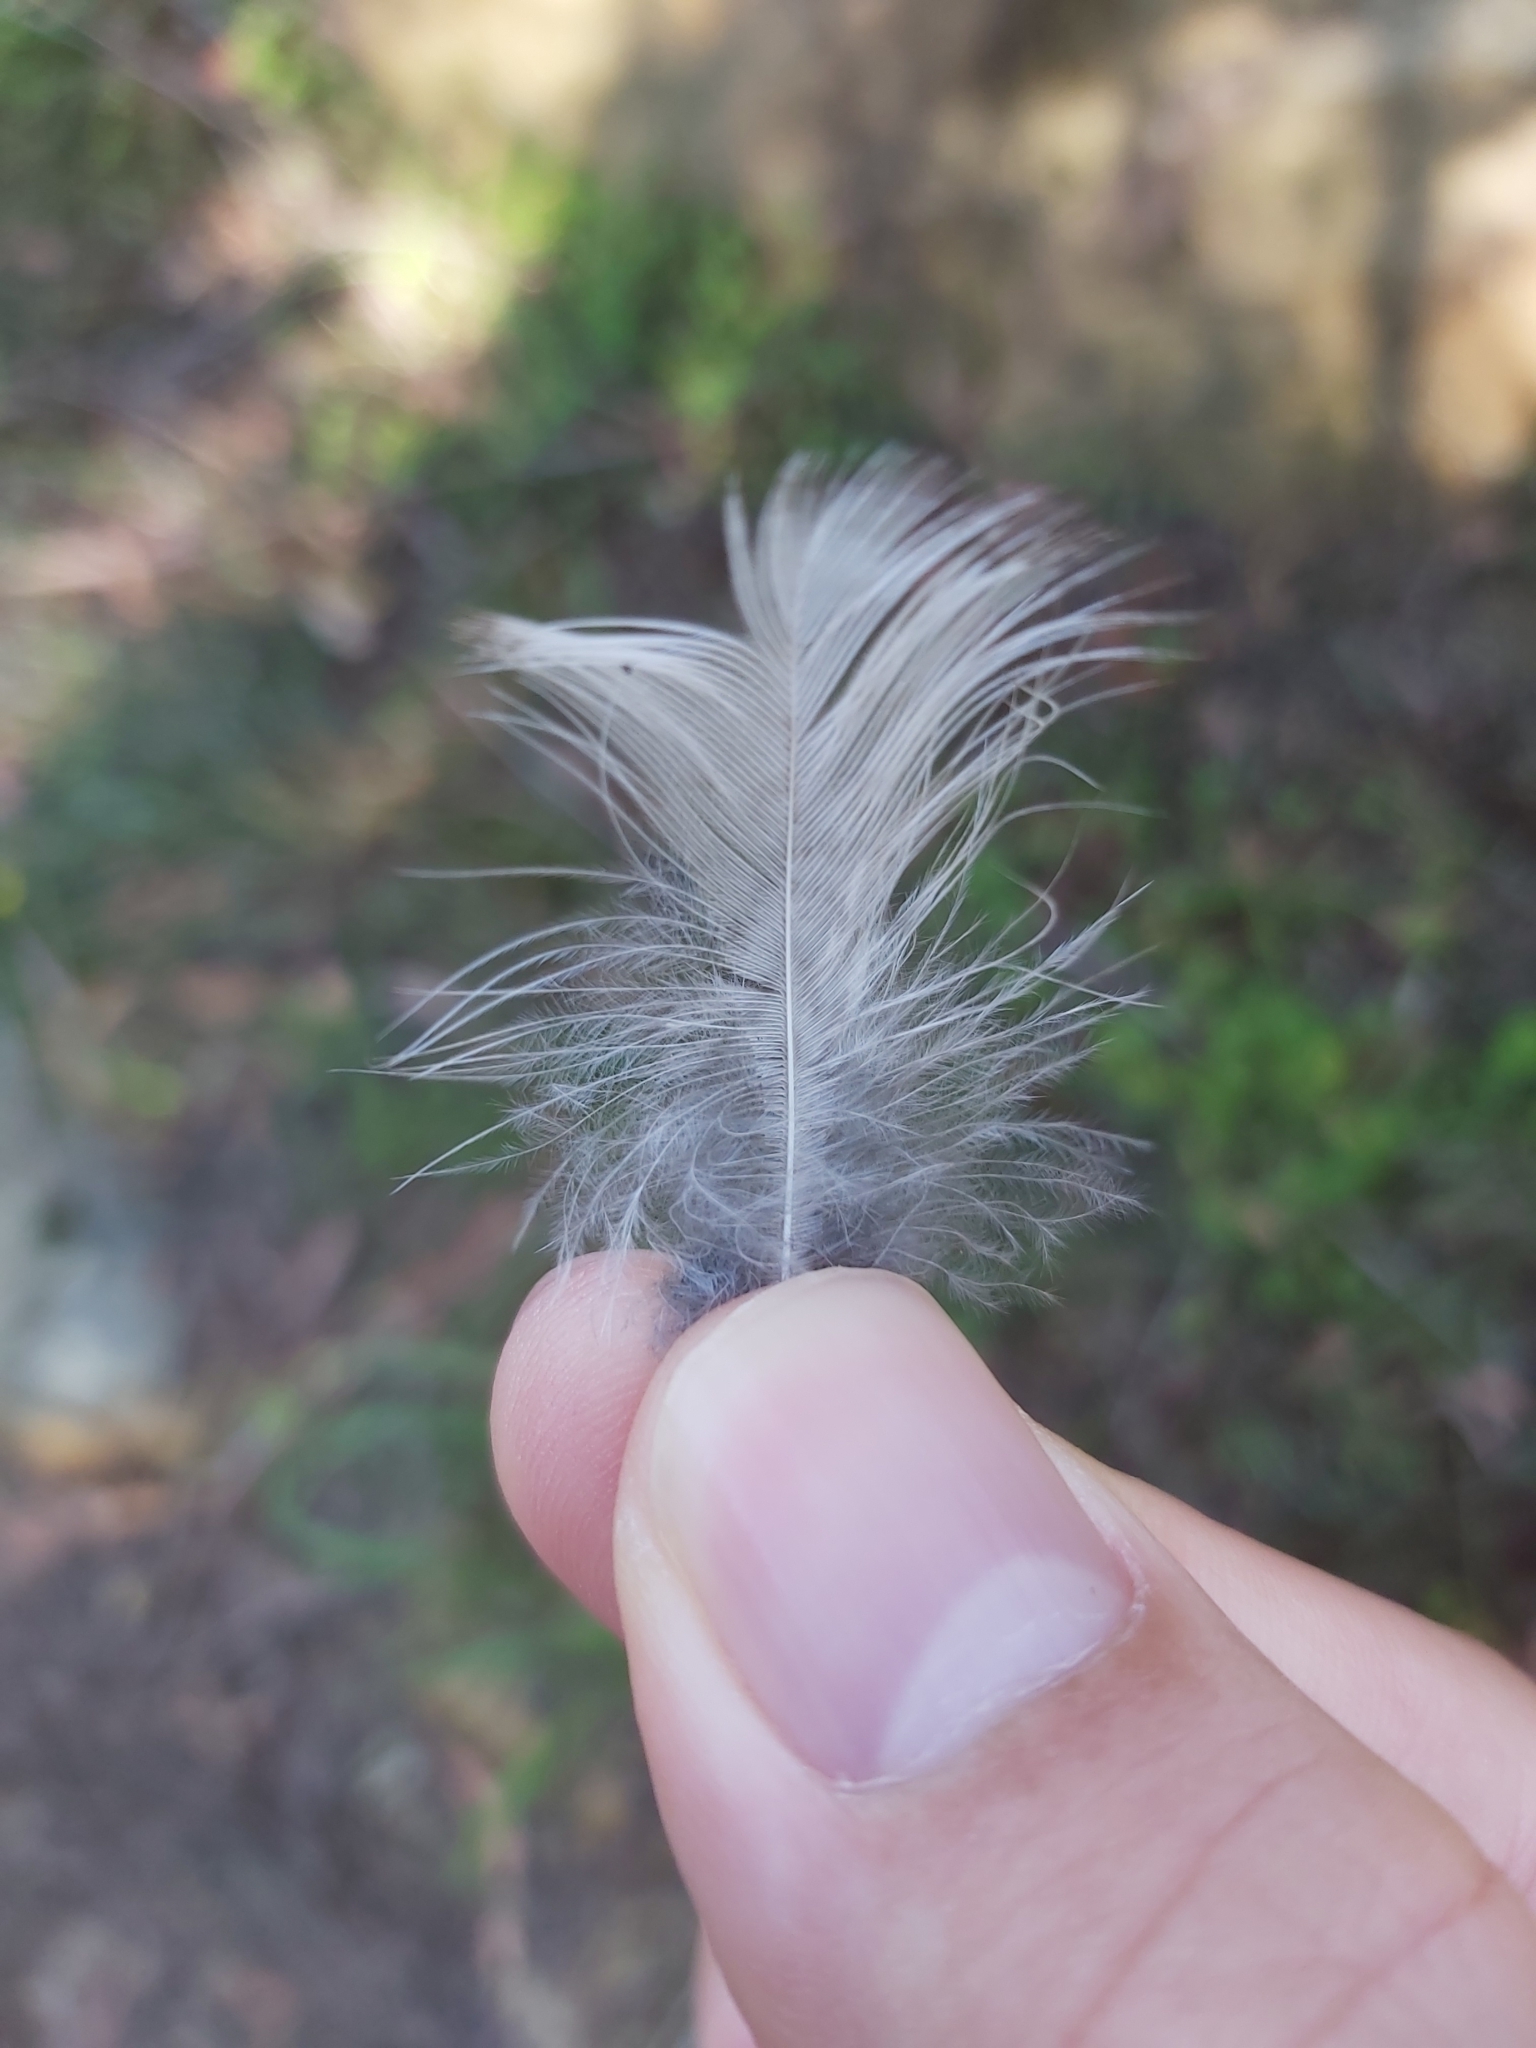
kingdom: Animalia
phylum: Chordata
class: Aves
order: Coraciiformes
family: Alcedinidae
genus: Dacelo
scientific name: Dacelo novaeguineae
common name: Laughing kookaburra
